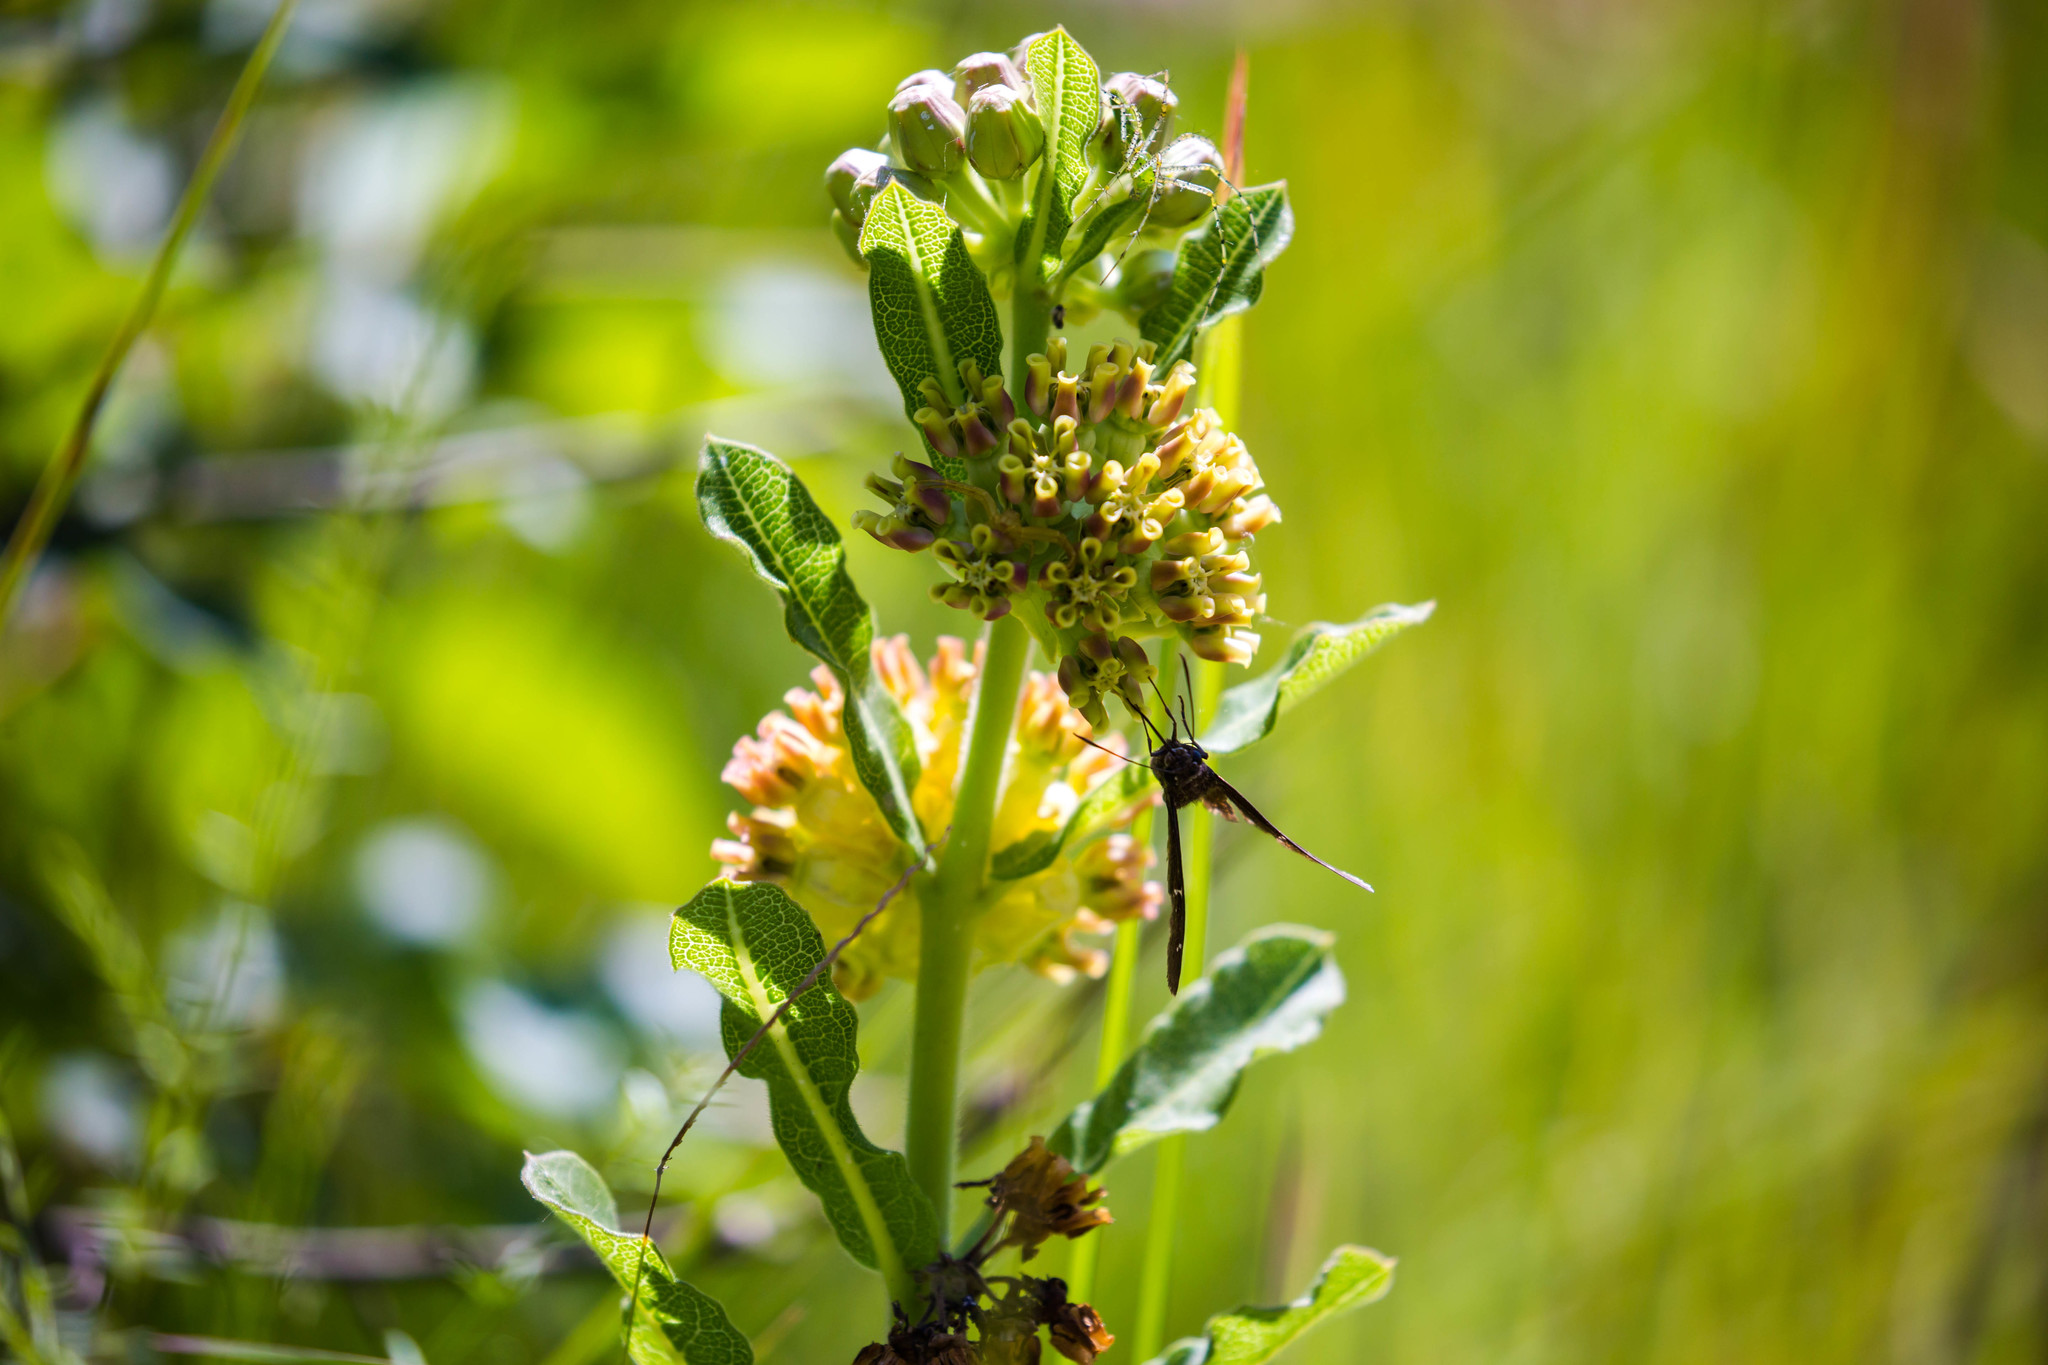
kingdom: Plantae
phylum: Tracheophyta
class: Magnoliopsida
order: Gentianales
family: Apocynaceae
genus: Asclepias
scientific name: Asclepias obovata
